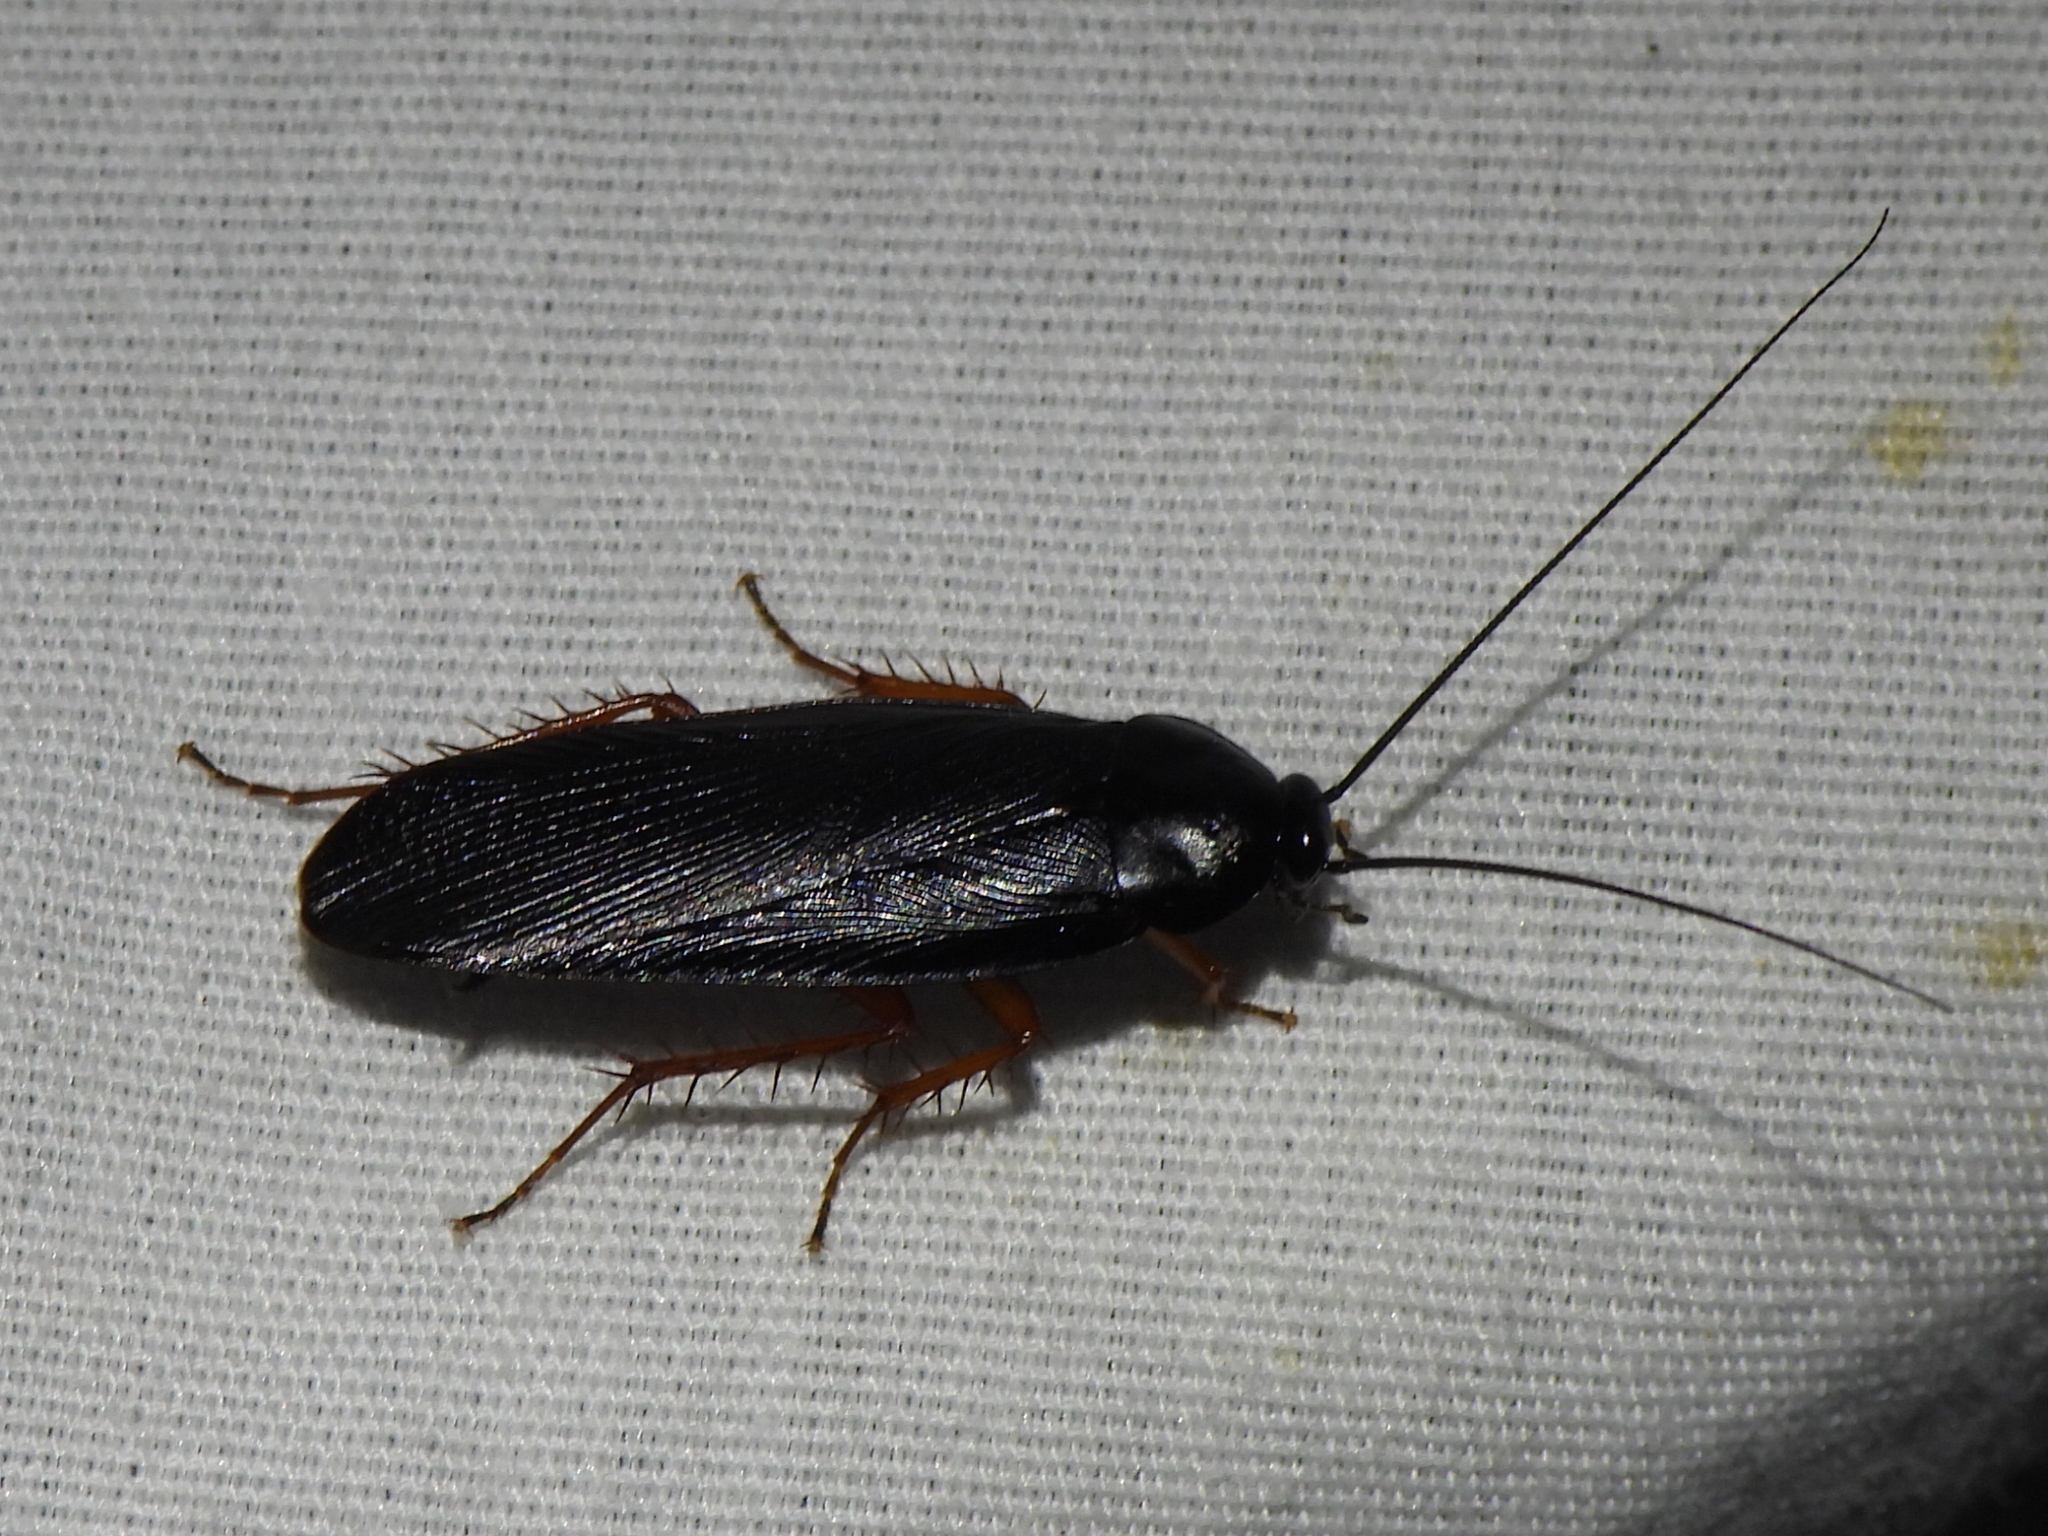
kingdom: Animalia
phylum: Arthropoda
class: Insecta
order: Blattodea
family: Ectobiidae
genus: Ischnoptera
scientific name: Ischnoptera deropeltiformis
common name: Dark wood cockroach
